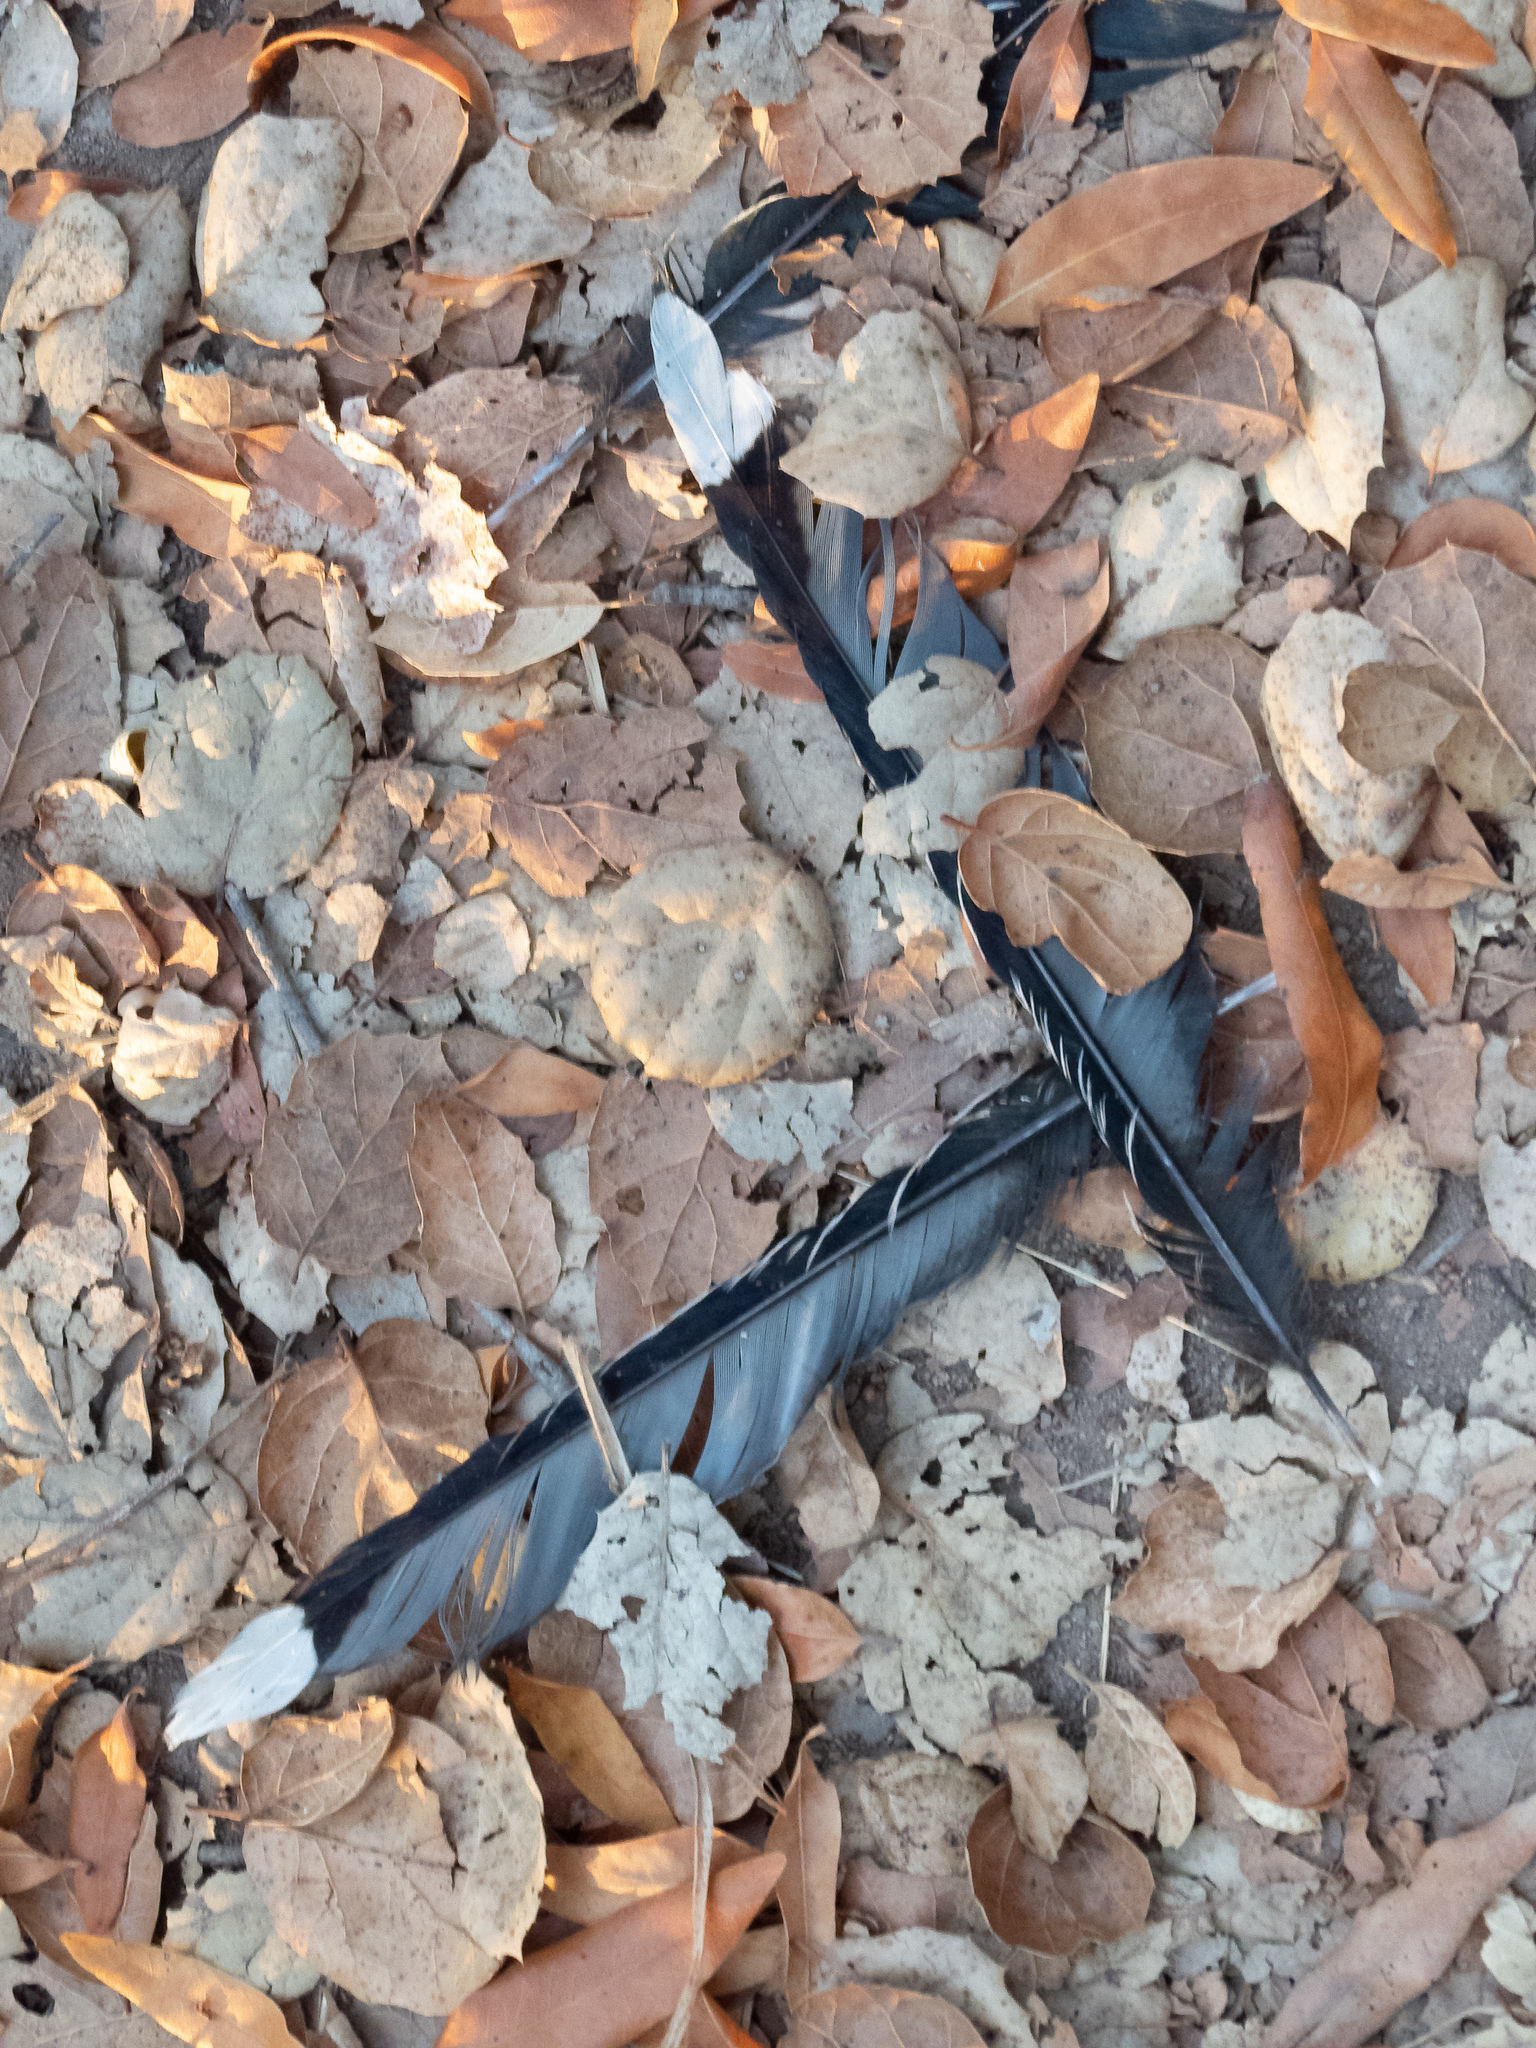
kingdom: Animalia
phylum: Chordata
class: Aves
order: Passeriformes
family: Corvidae
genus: Cyanocitta
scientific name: Cyanocitta stelleri
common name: Steller's jay
